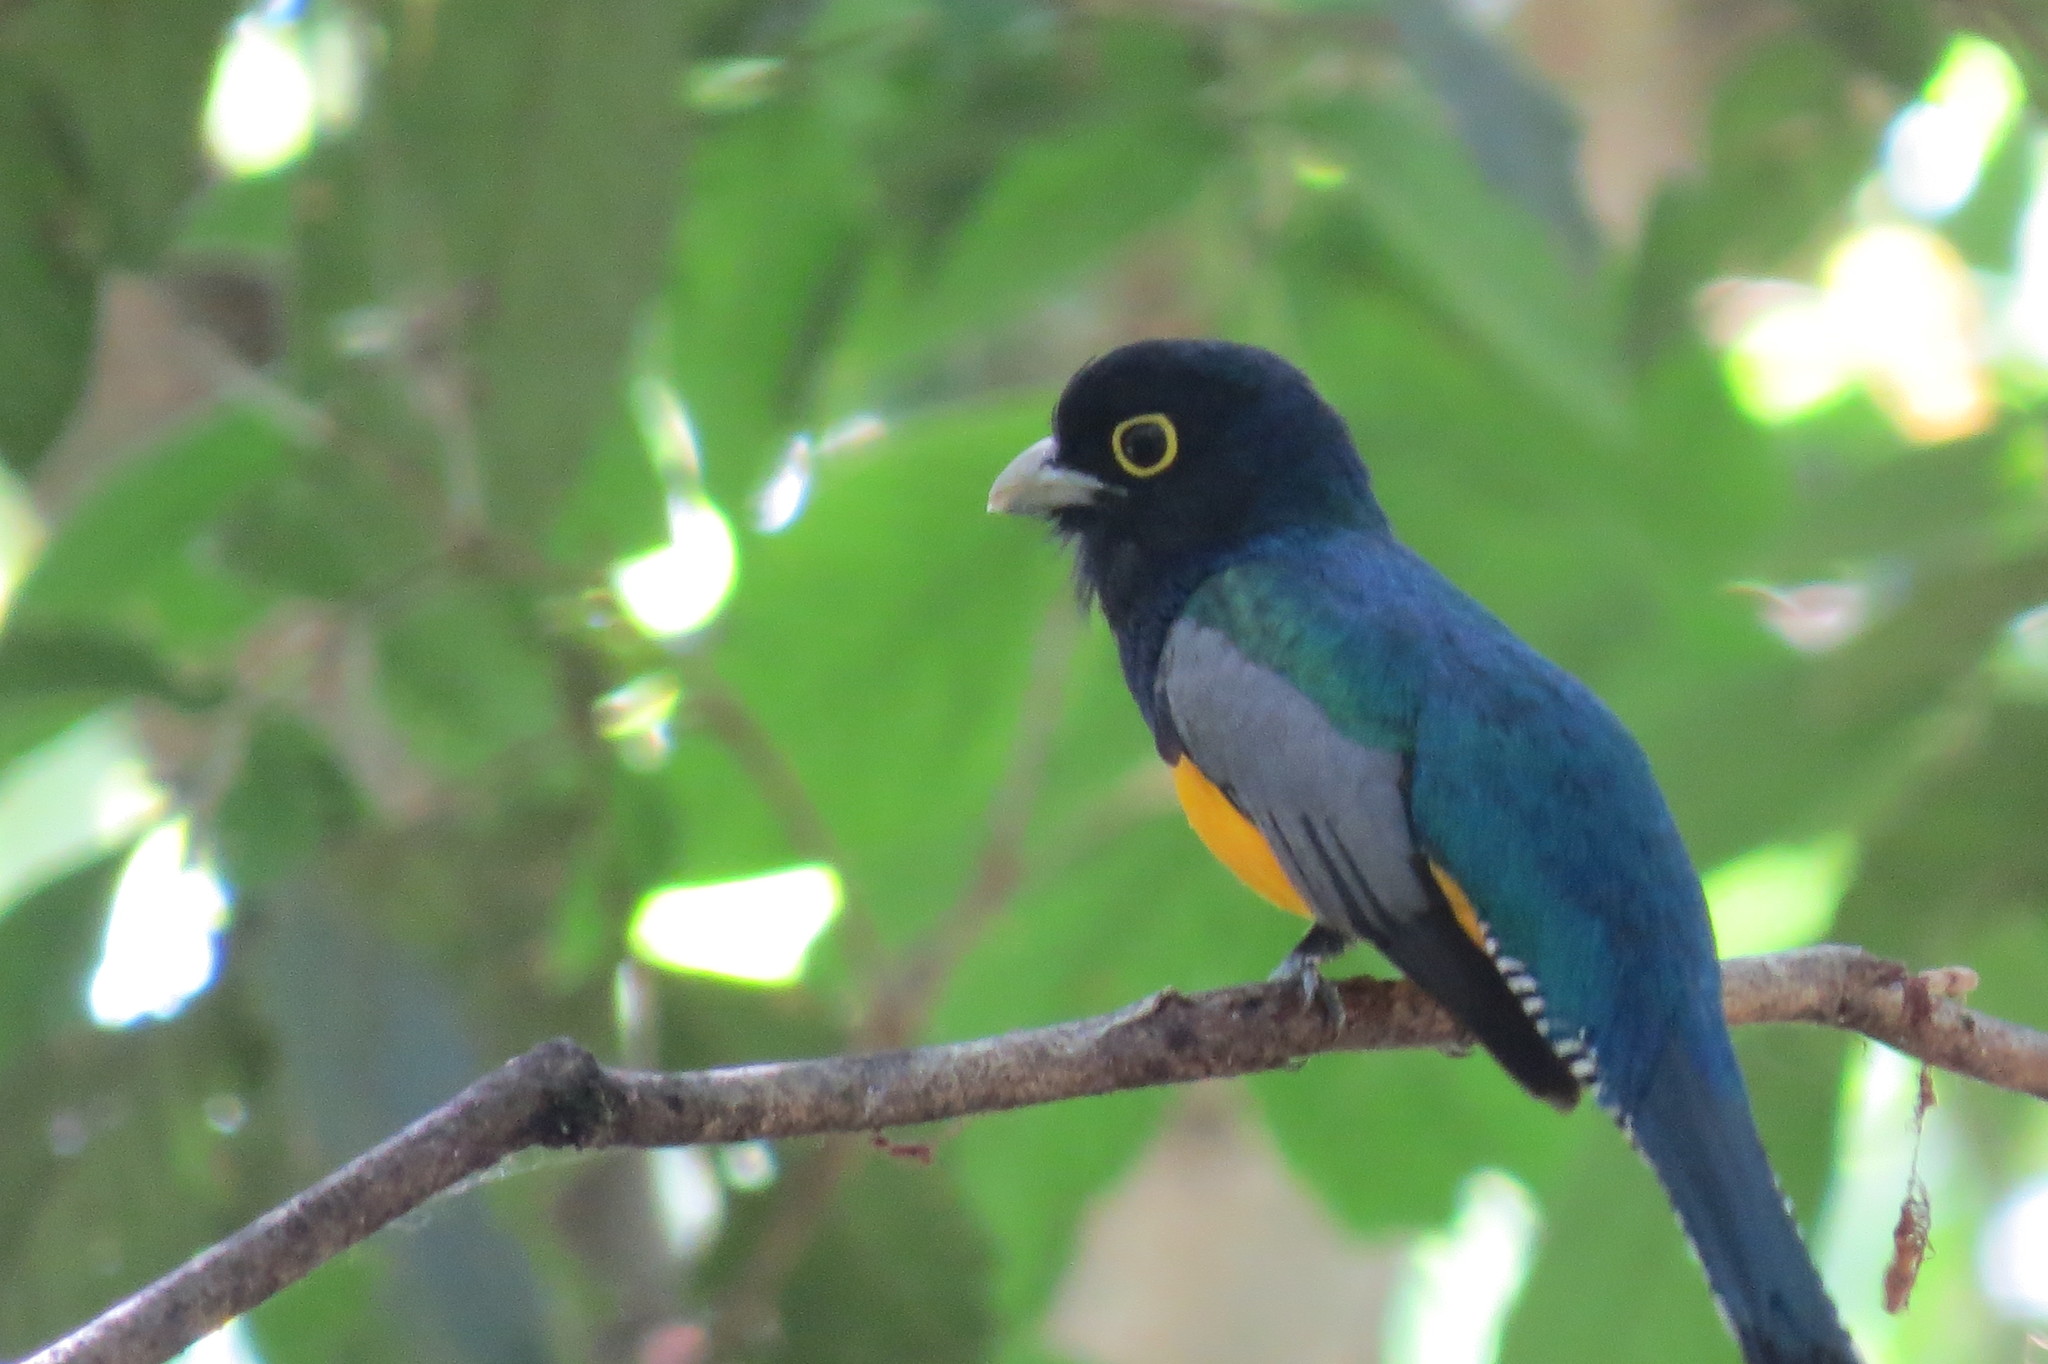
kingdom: Animalia
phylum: Chordata
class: Aves
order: Trogoniformes
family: Trogonidae
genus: Trogon
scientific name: Trogon caligatus
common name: Gartered trogon
